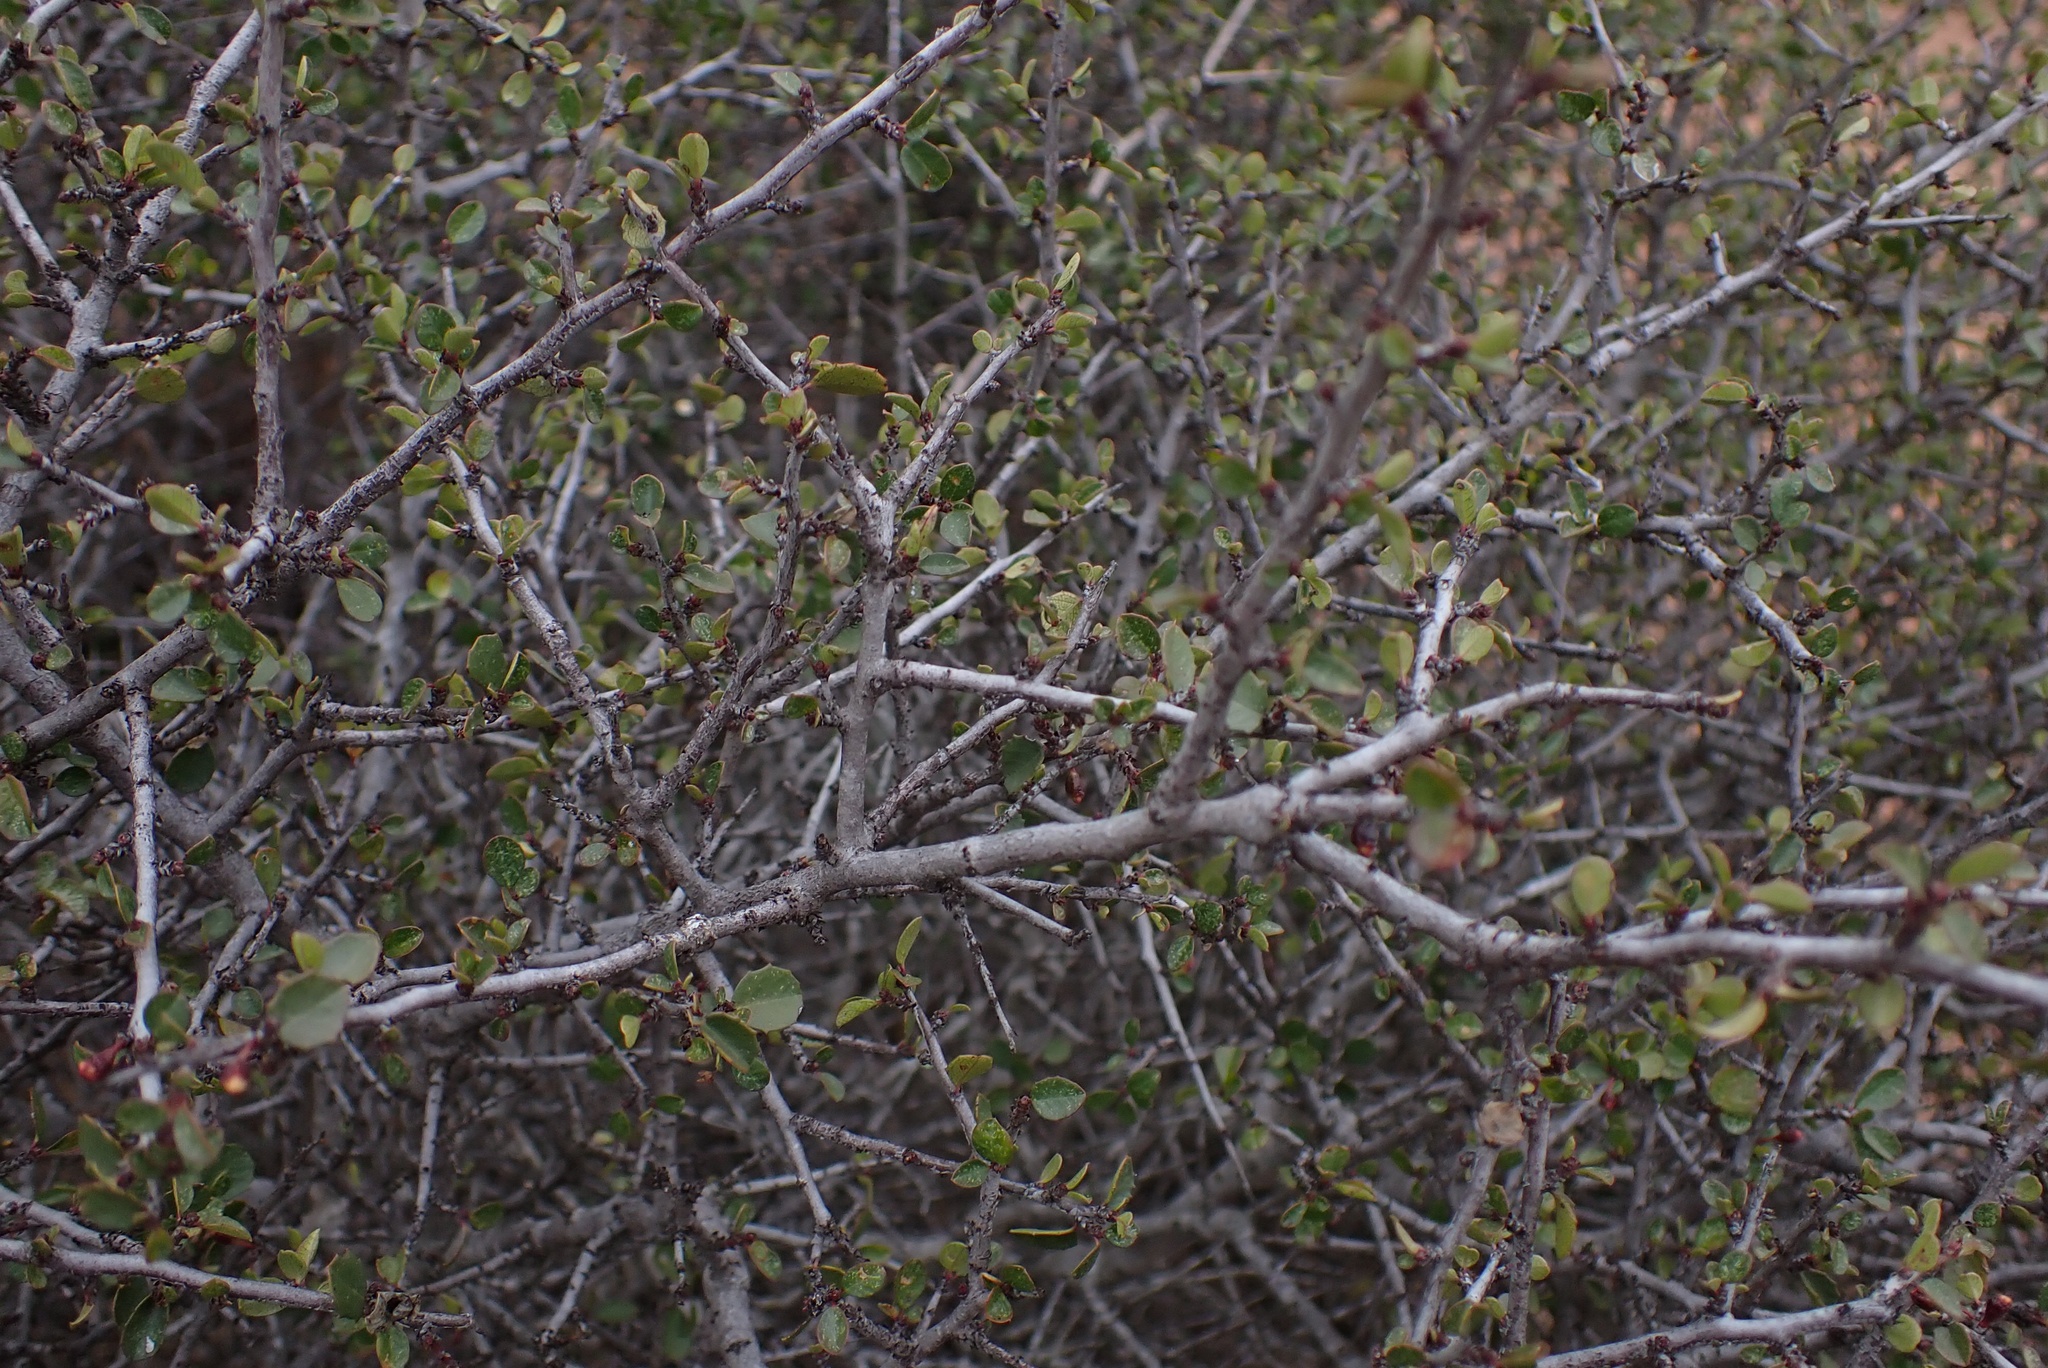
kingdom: Plantae
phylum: Tracheophyta
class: Magnoliopsida
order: Rosales
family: Rhamnaceae
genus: Endotropis
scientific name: Endotropis crocea
